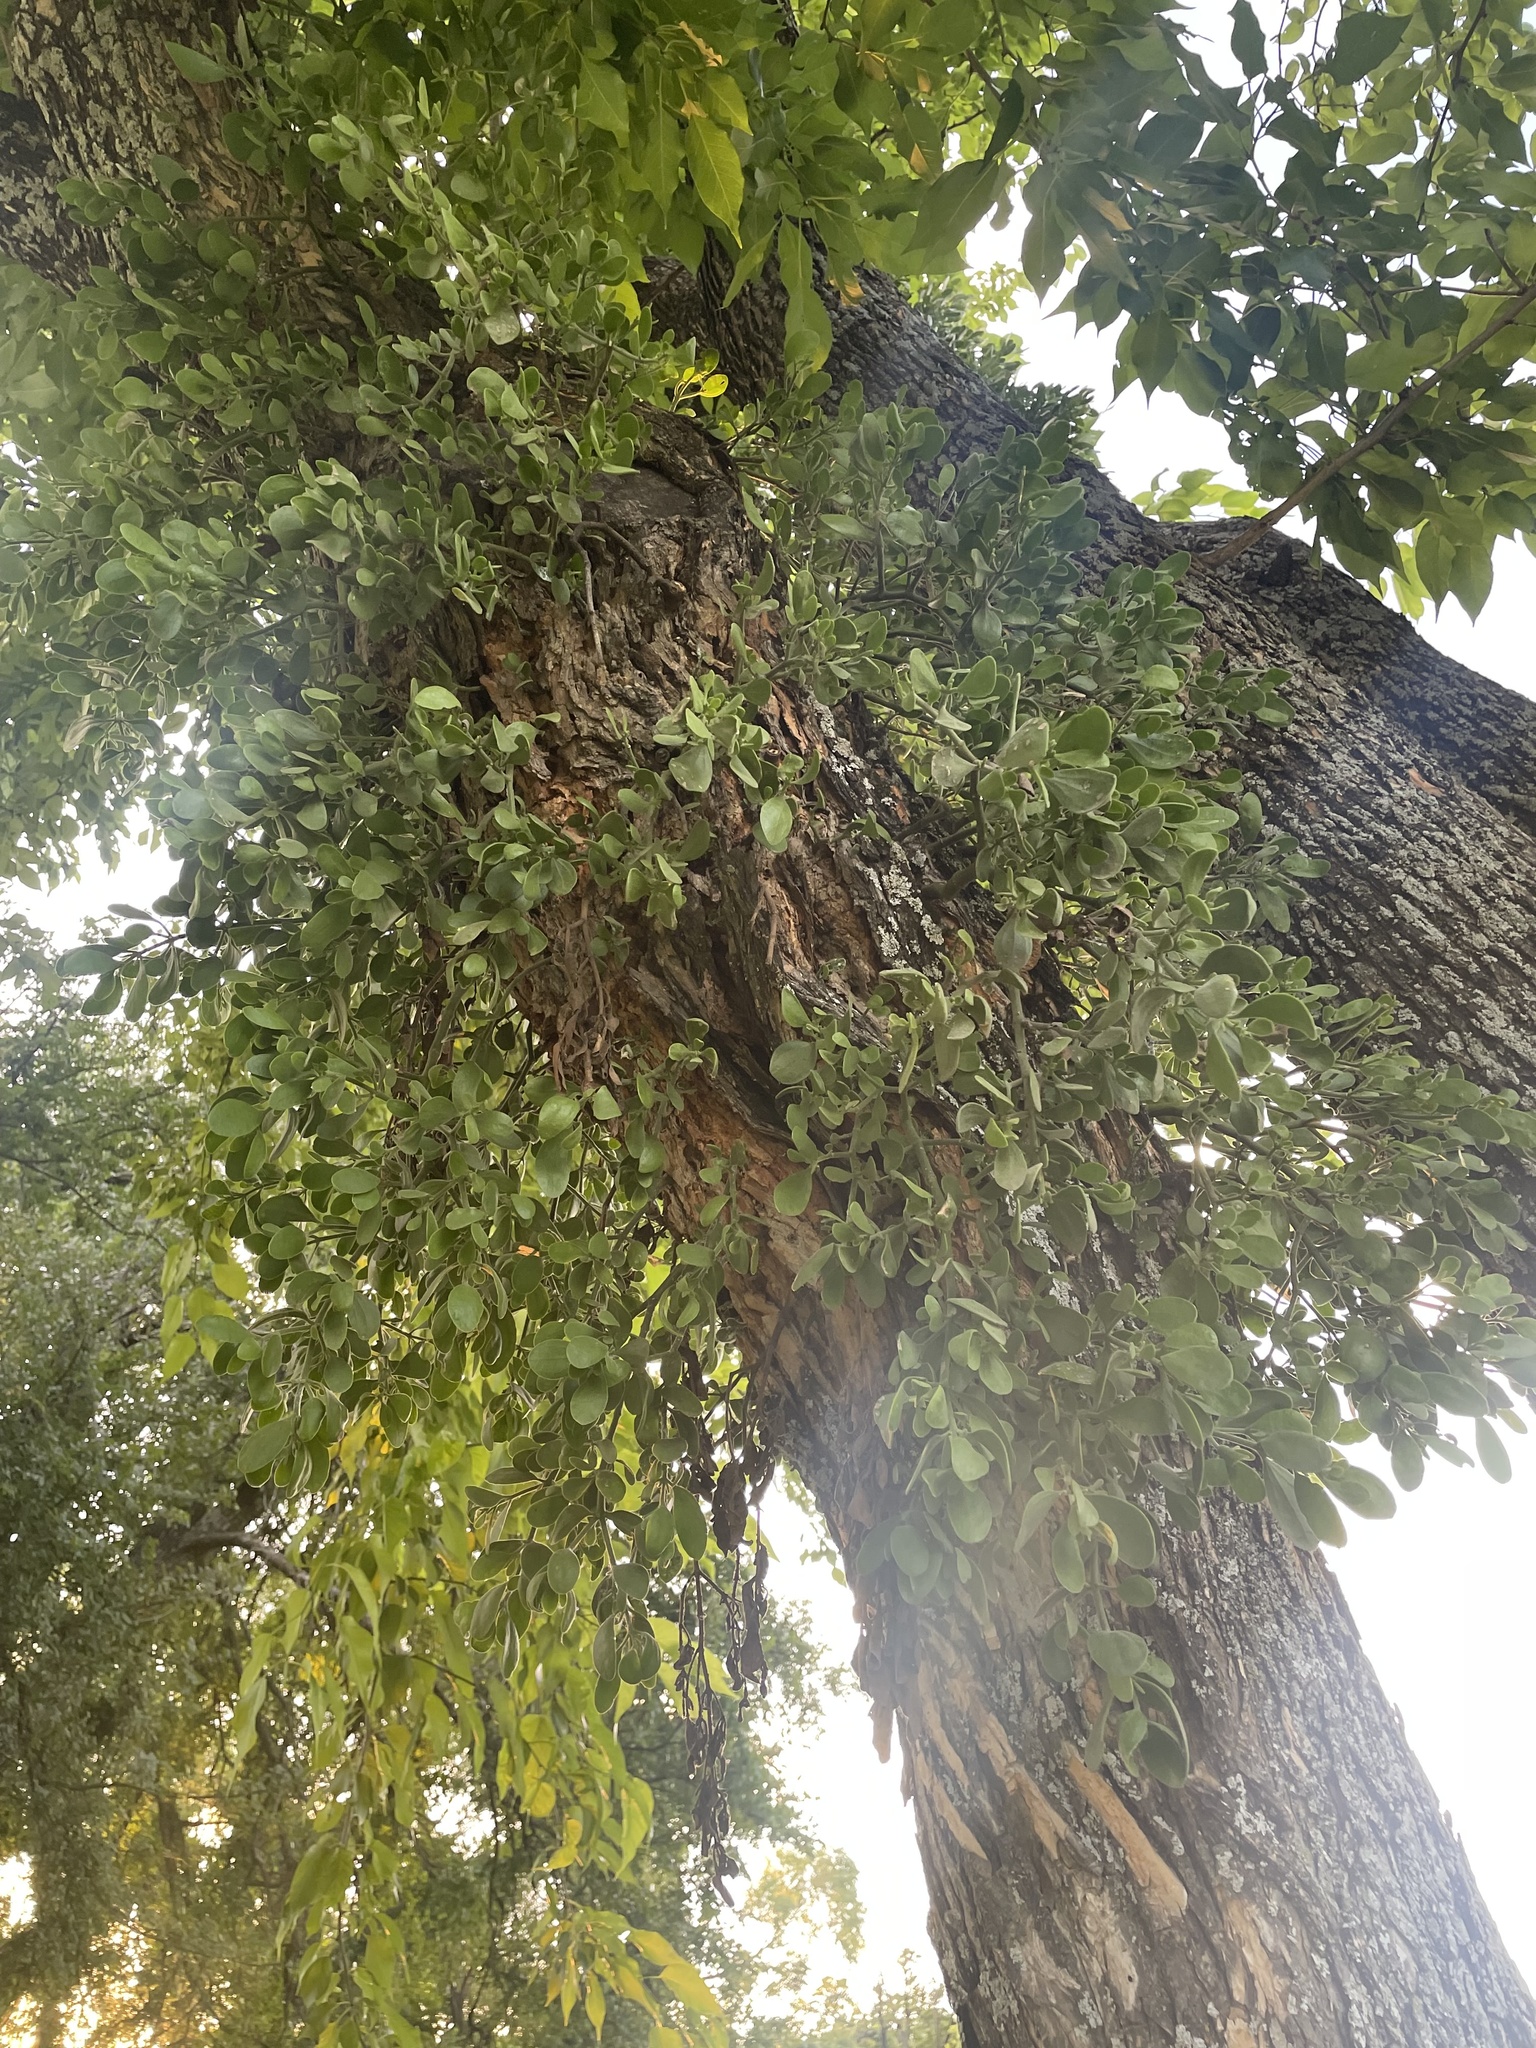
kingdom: Plantae
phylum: Tracheophyta
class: Magnoliopsida
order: Santalales
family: Viscaceae
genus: Phoradendron
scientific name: Phoradendron leucarpum
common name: Pacific mistletoe
